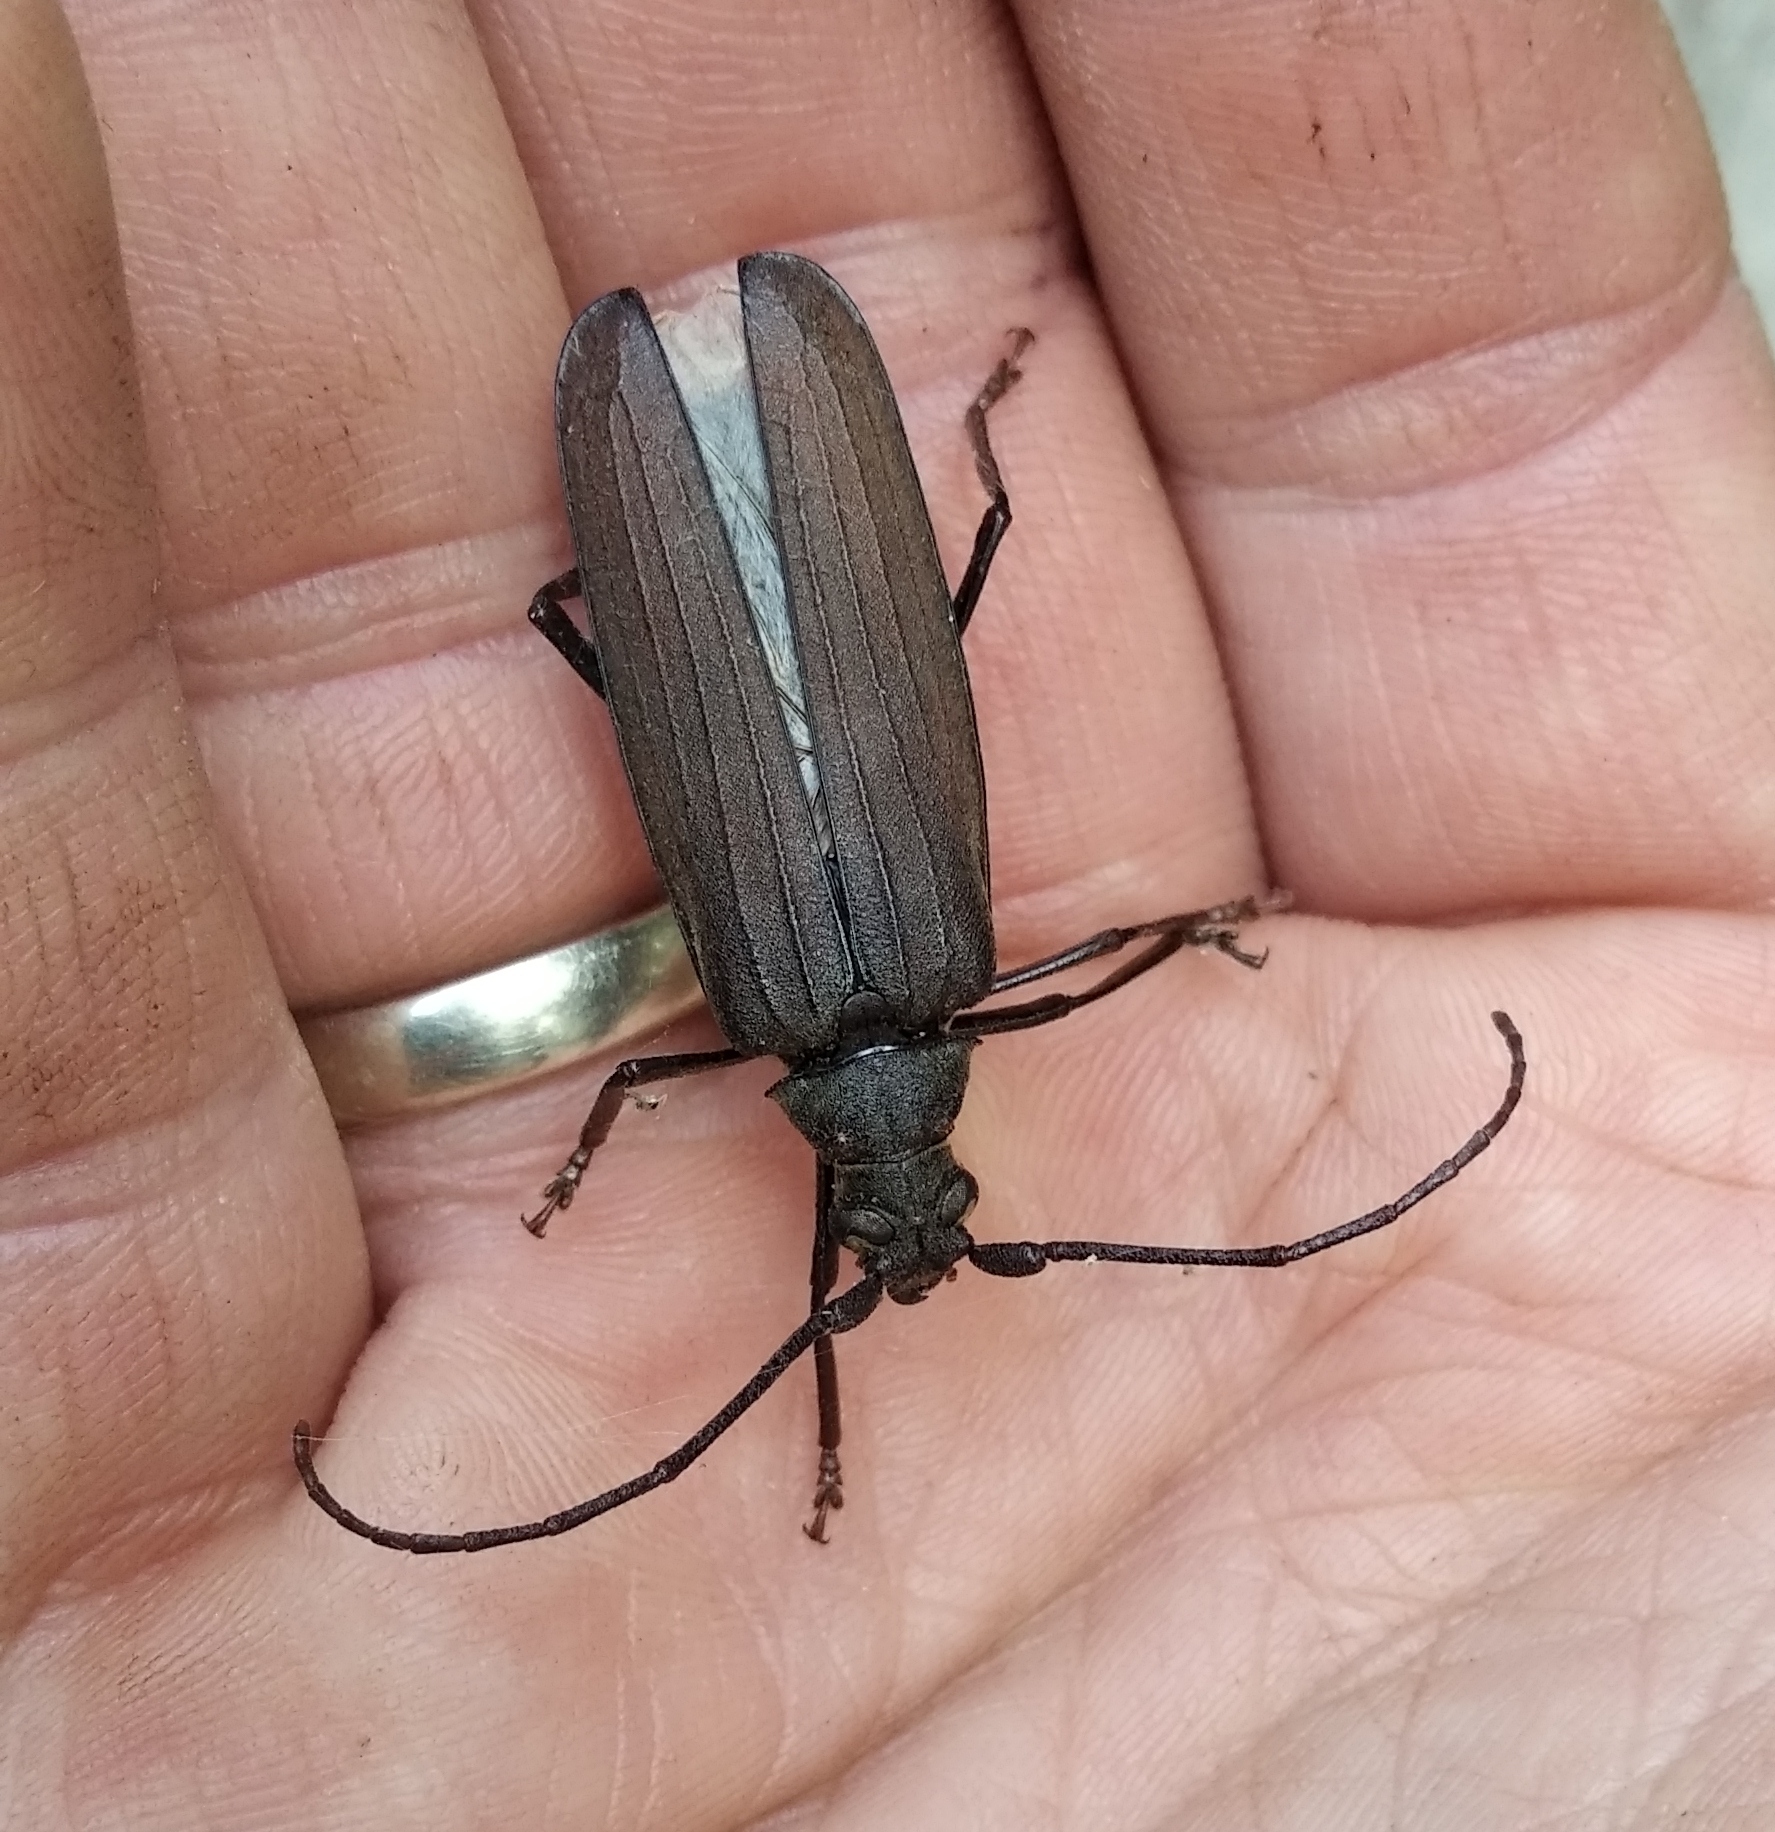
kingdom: Animalia
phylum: Arthropoda
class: Insecta
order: Coleoptera
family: Cerambycidae
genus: Aegosoma
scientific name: Aegosoma scabricorne
